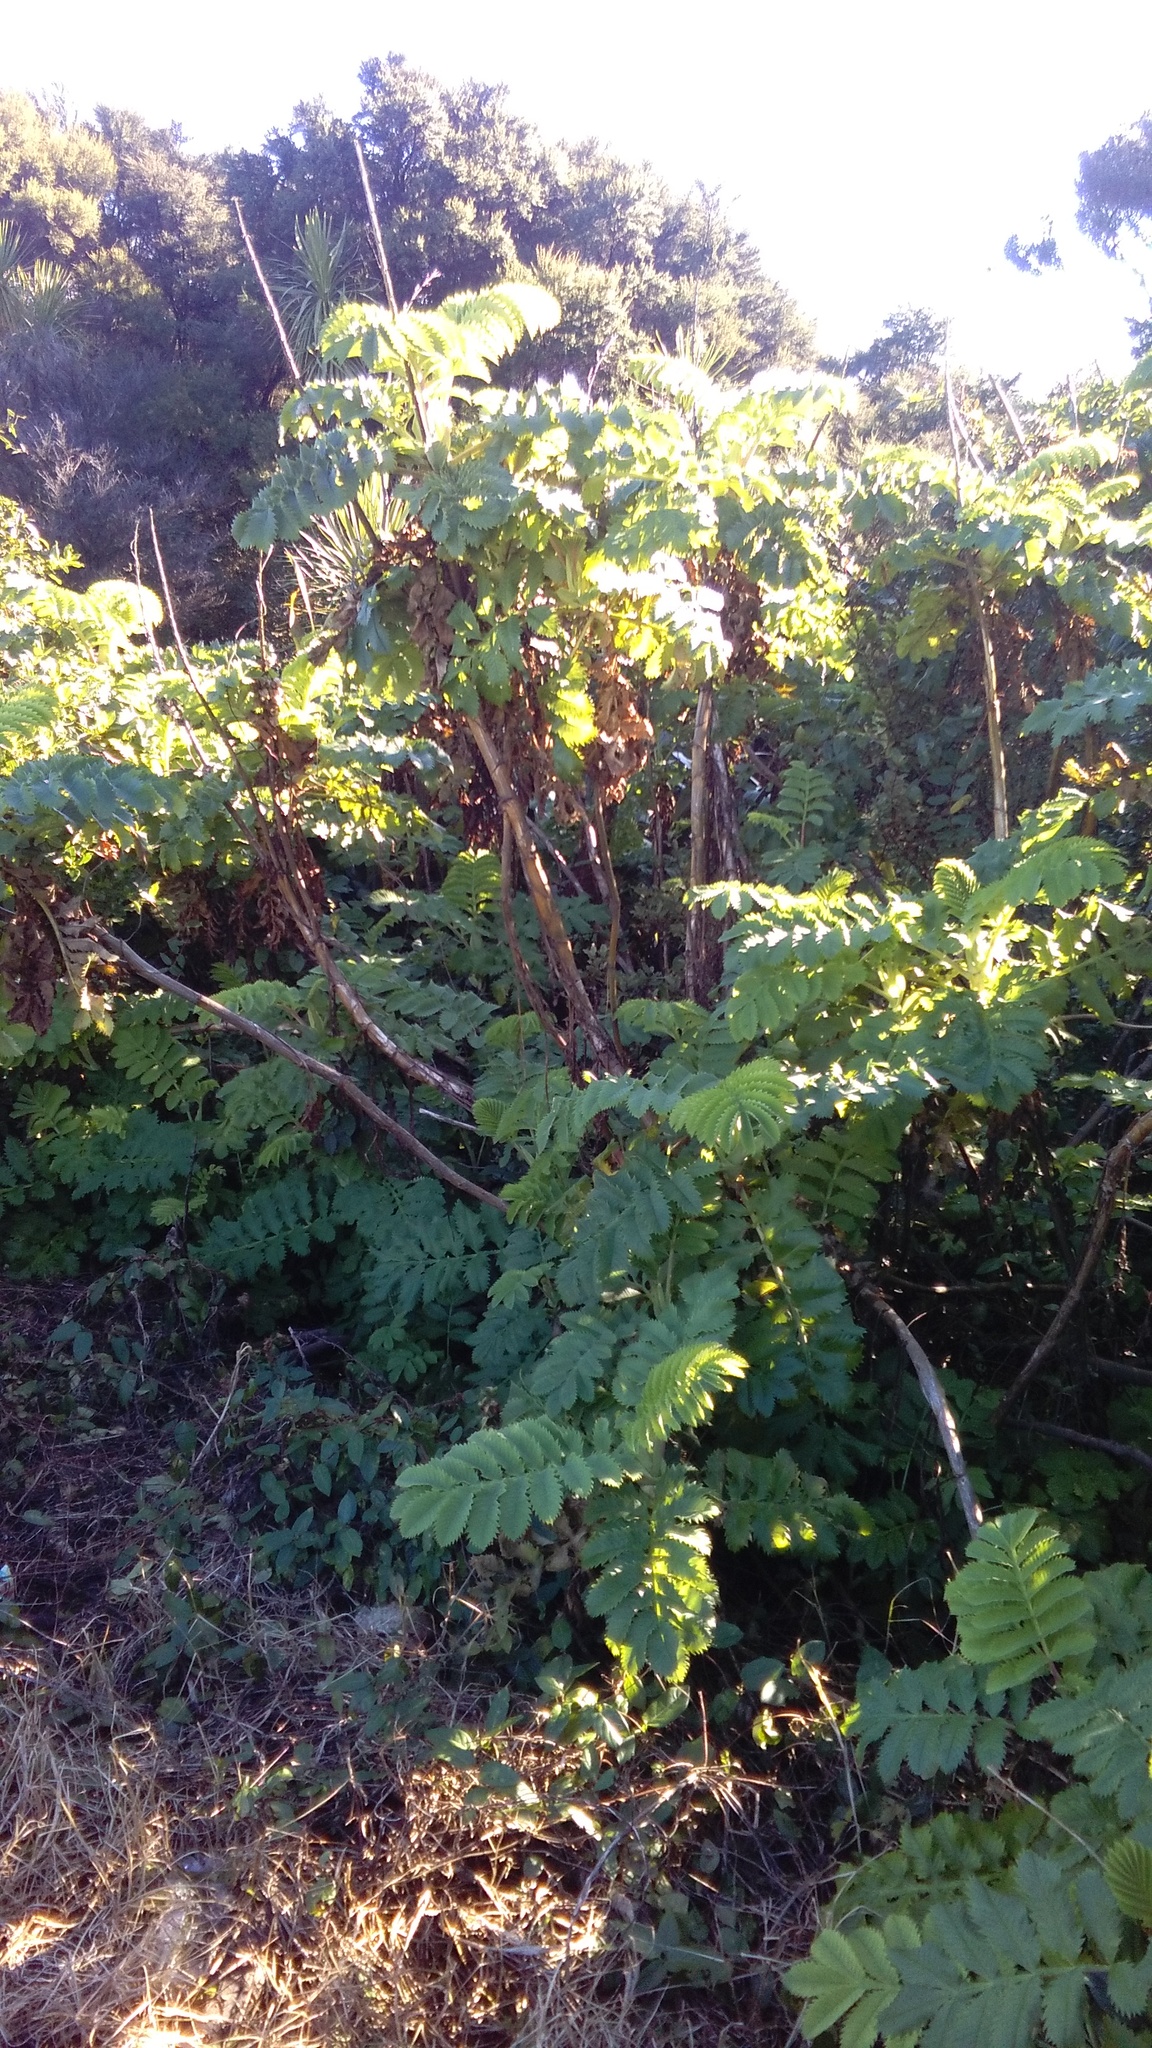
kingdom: Plantae
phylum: Tracheophyta
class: Magnoliopsida
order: Geraniales
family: Melianthaceae
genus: Melianthus
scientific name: Melianthus major
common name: Honey-flower
